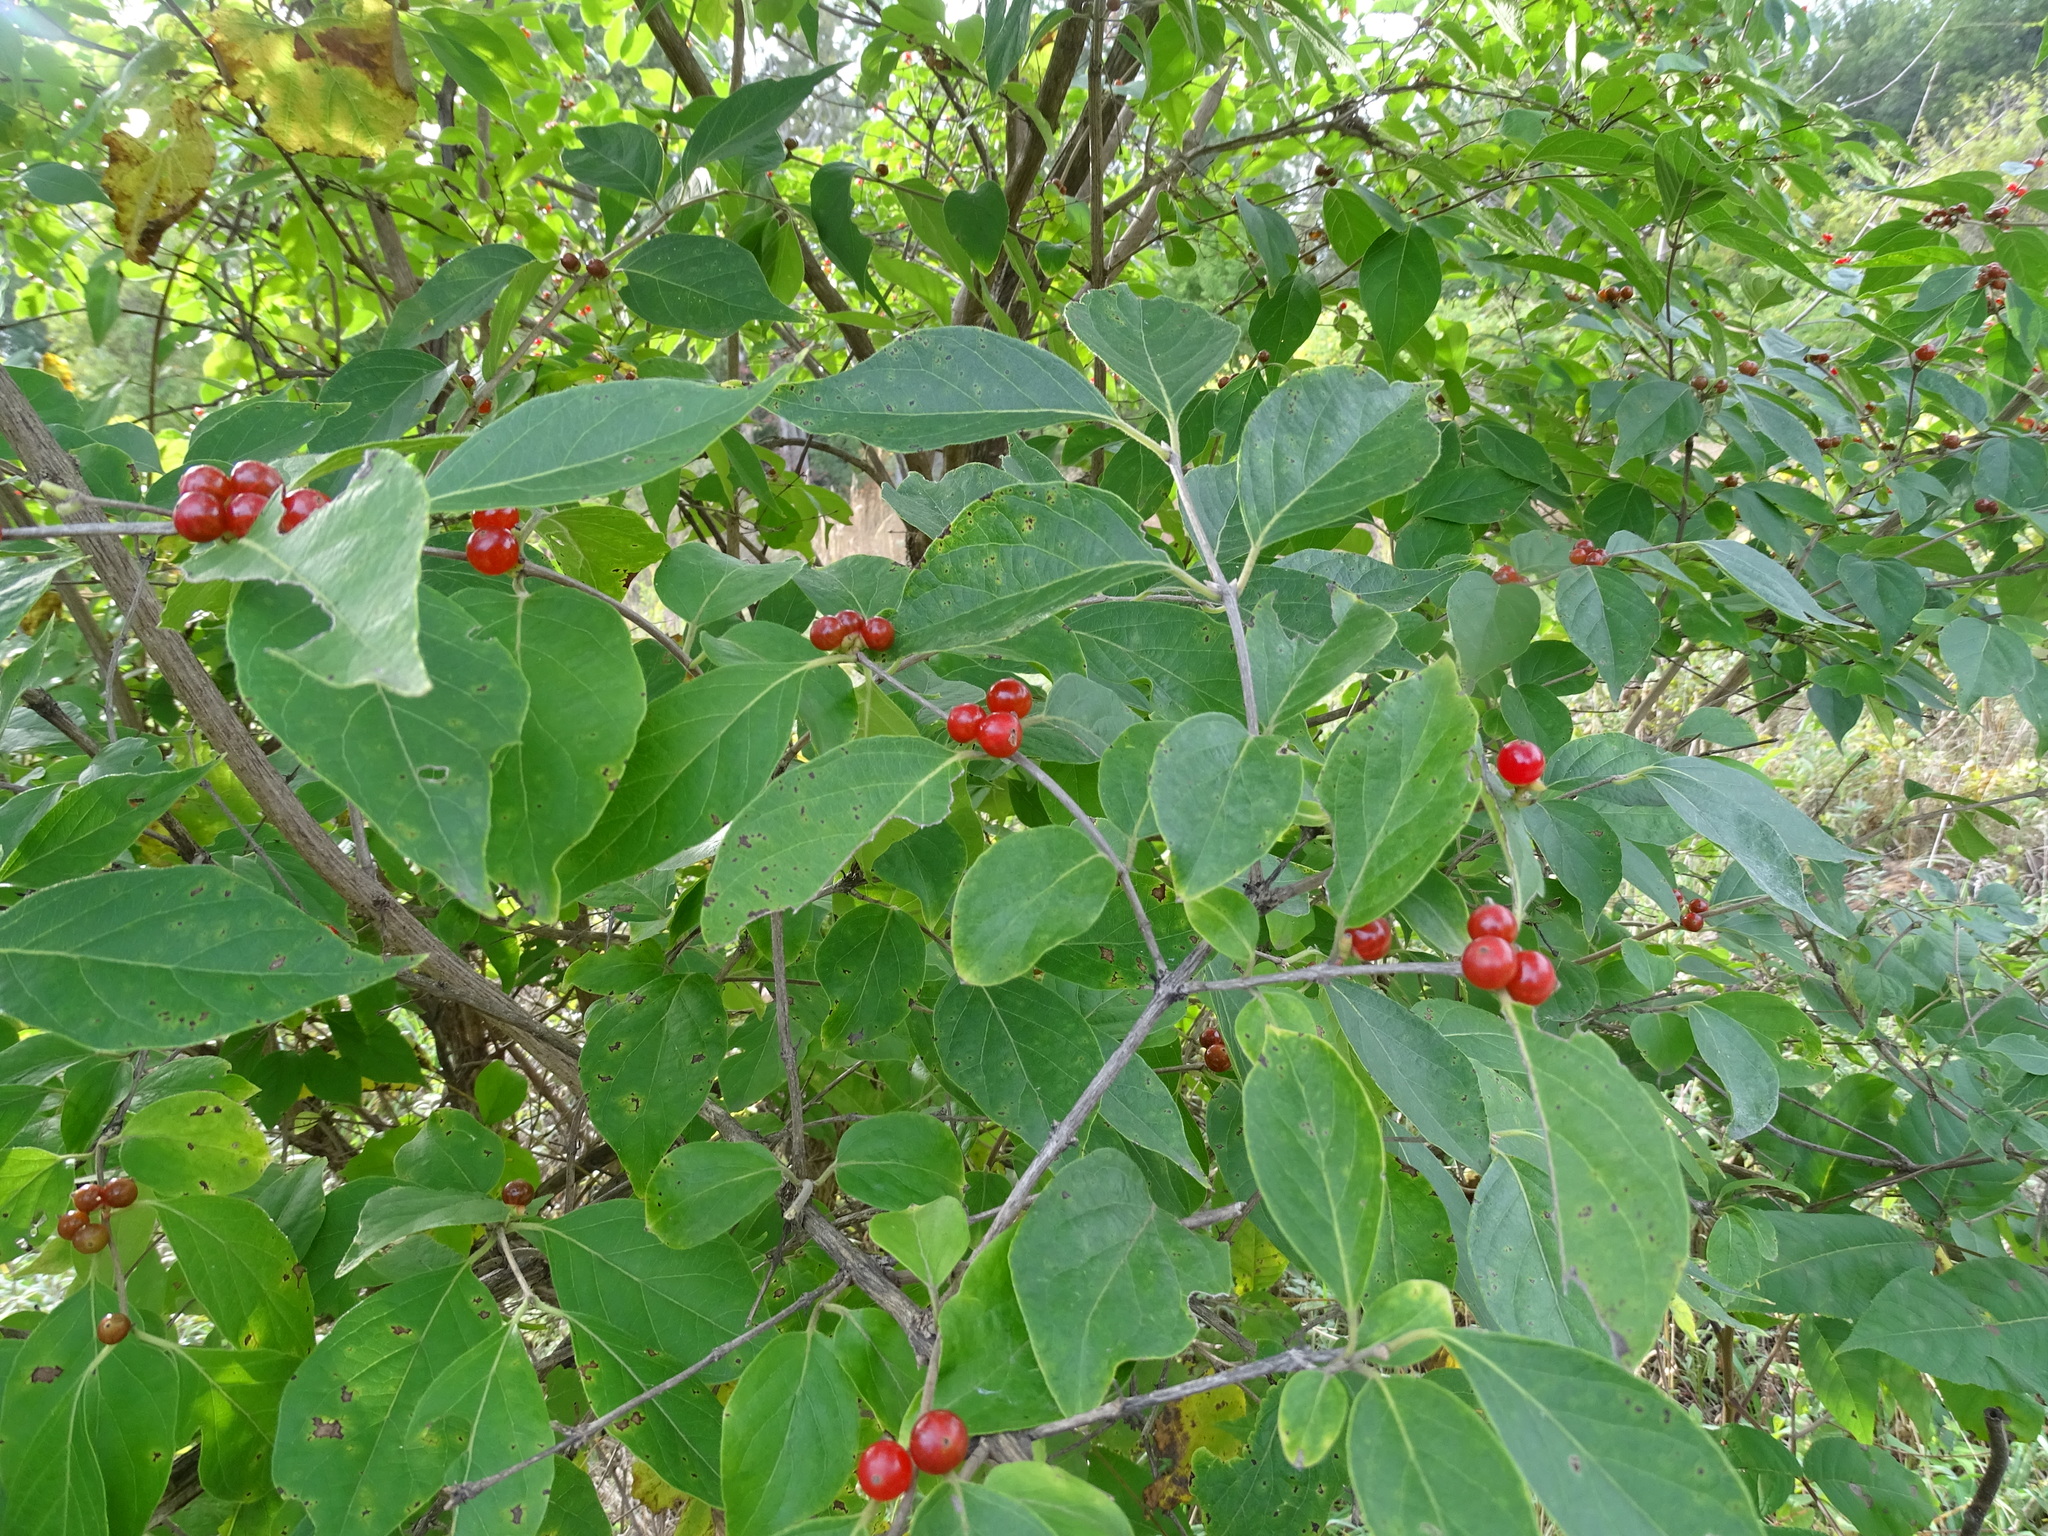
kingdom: Plantae
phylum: Tracheophyta
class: Magnoliopsida
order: Dipsacales
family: Caprifoliaceae
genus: Lonicera
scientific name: Lonicera maackii
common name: Amur honeysuckle
